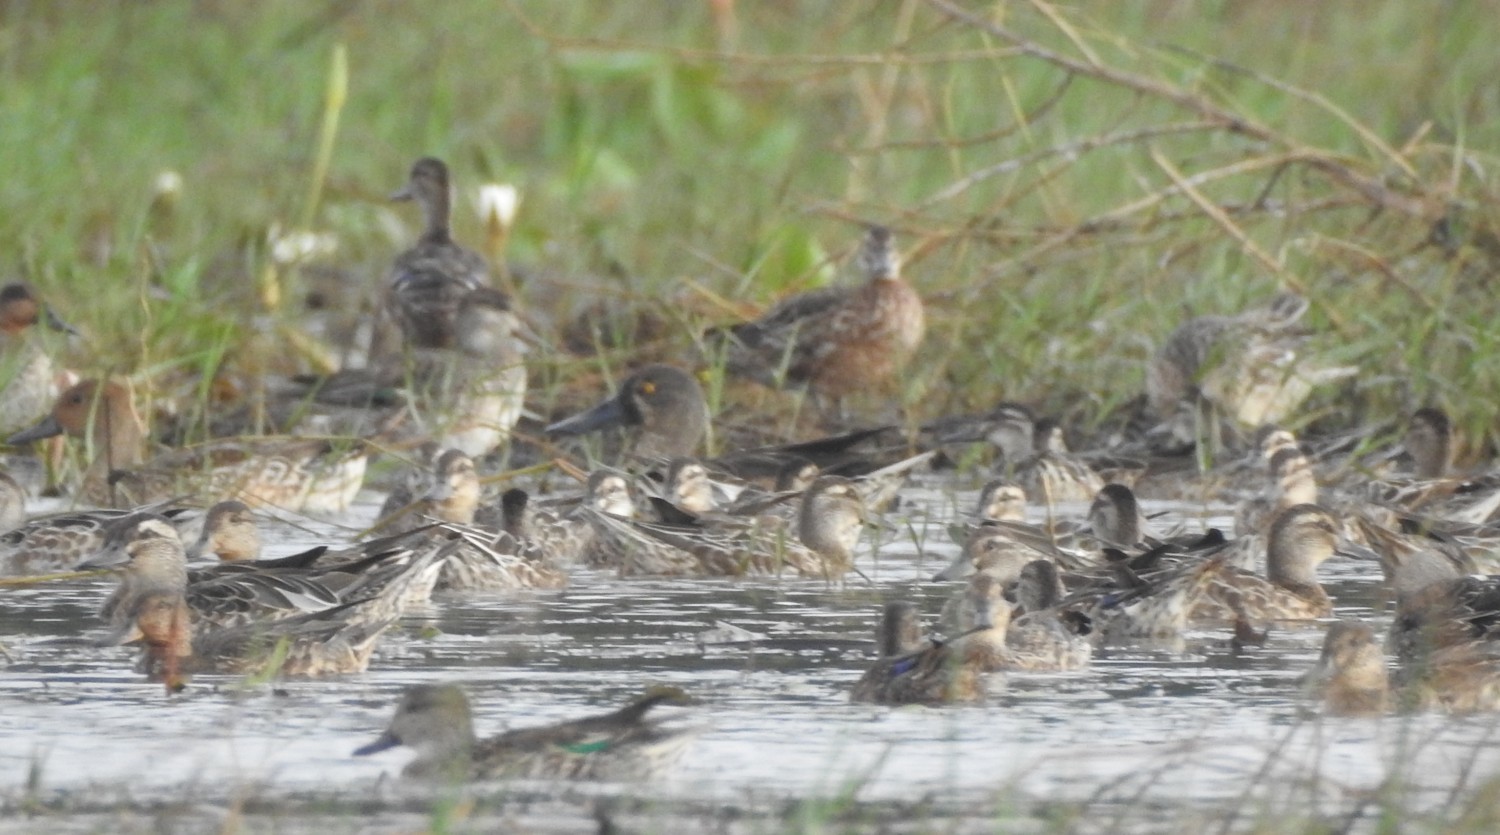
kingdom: Animalia
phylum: Chordata
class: Aves
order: Anseriformes
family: Anatidae
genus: Spatula
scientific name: Spatula clypeata
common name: Northern shoveler
